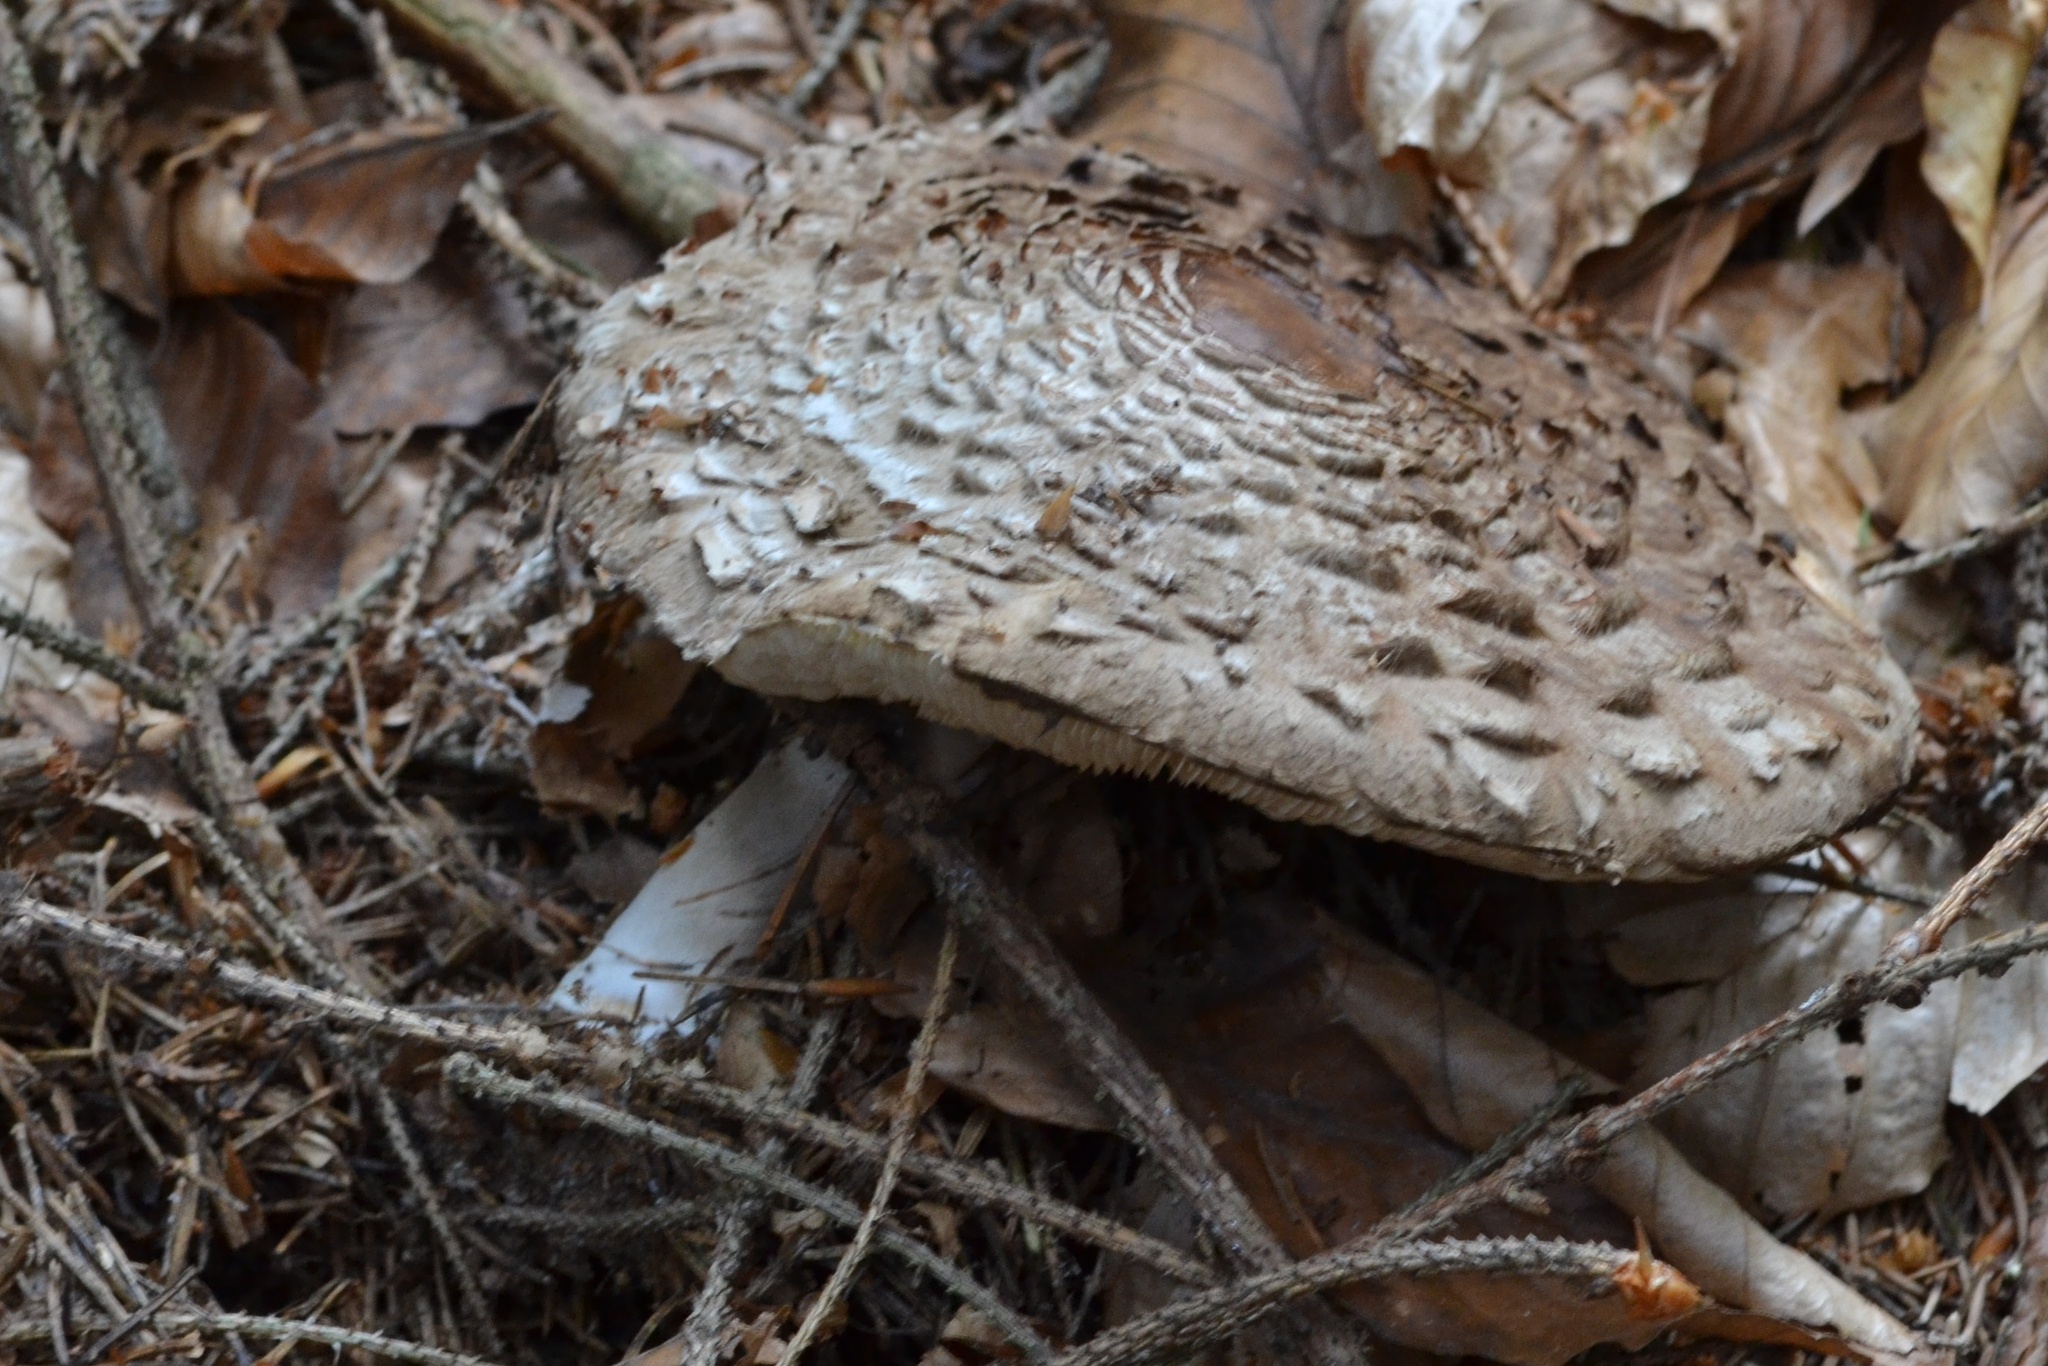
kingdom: Fungi
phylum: Basidiomycota
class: Agaricomycetes
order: Agaricales
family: Agaricaceae
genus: Chlorophyllum
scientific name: Chlorophyllum olivieri
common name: Conifer parasol
